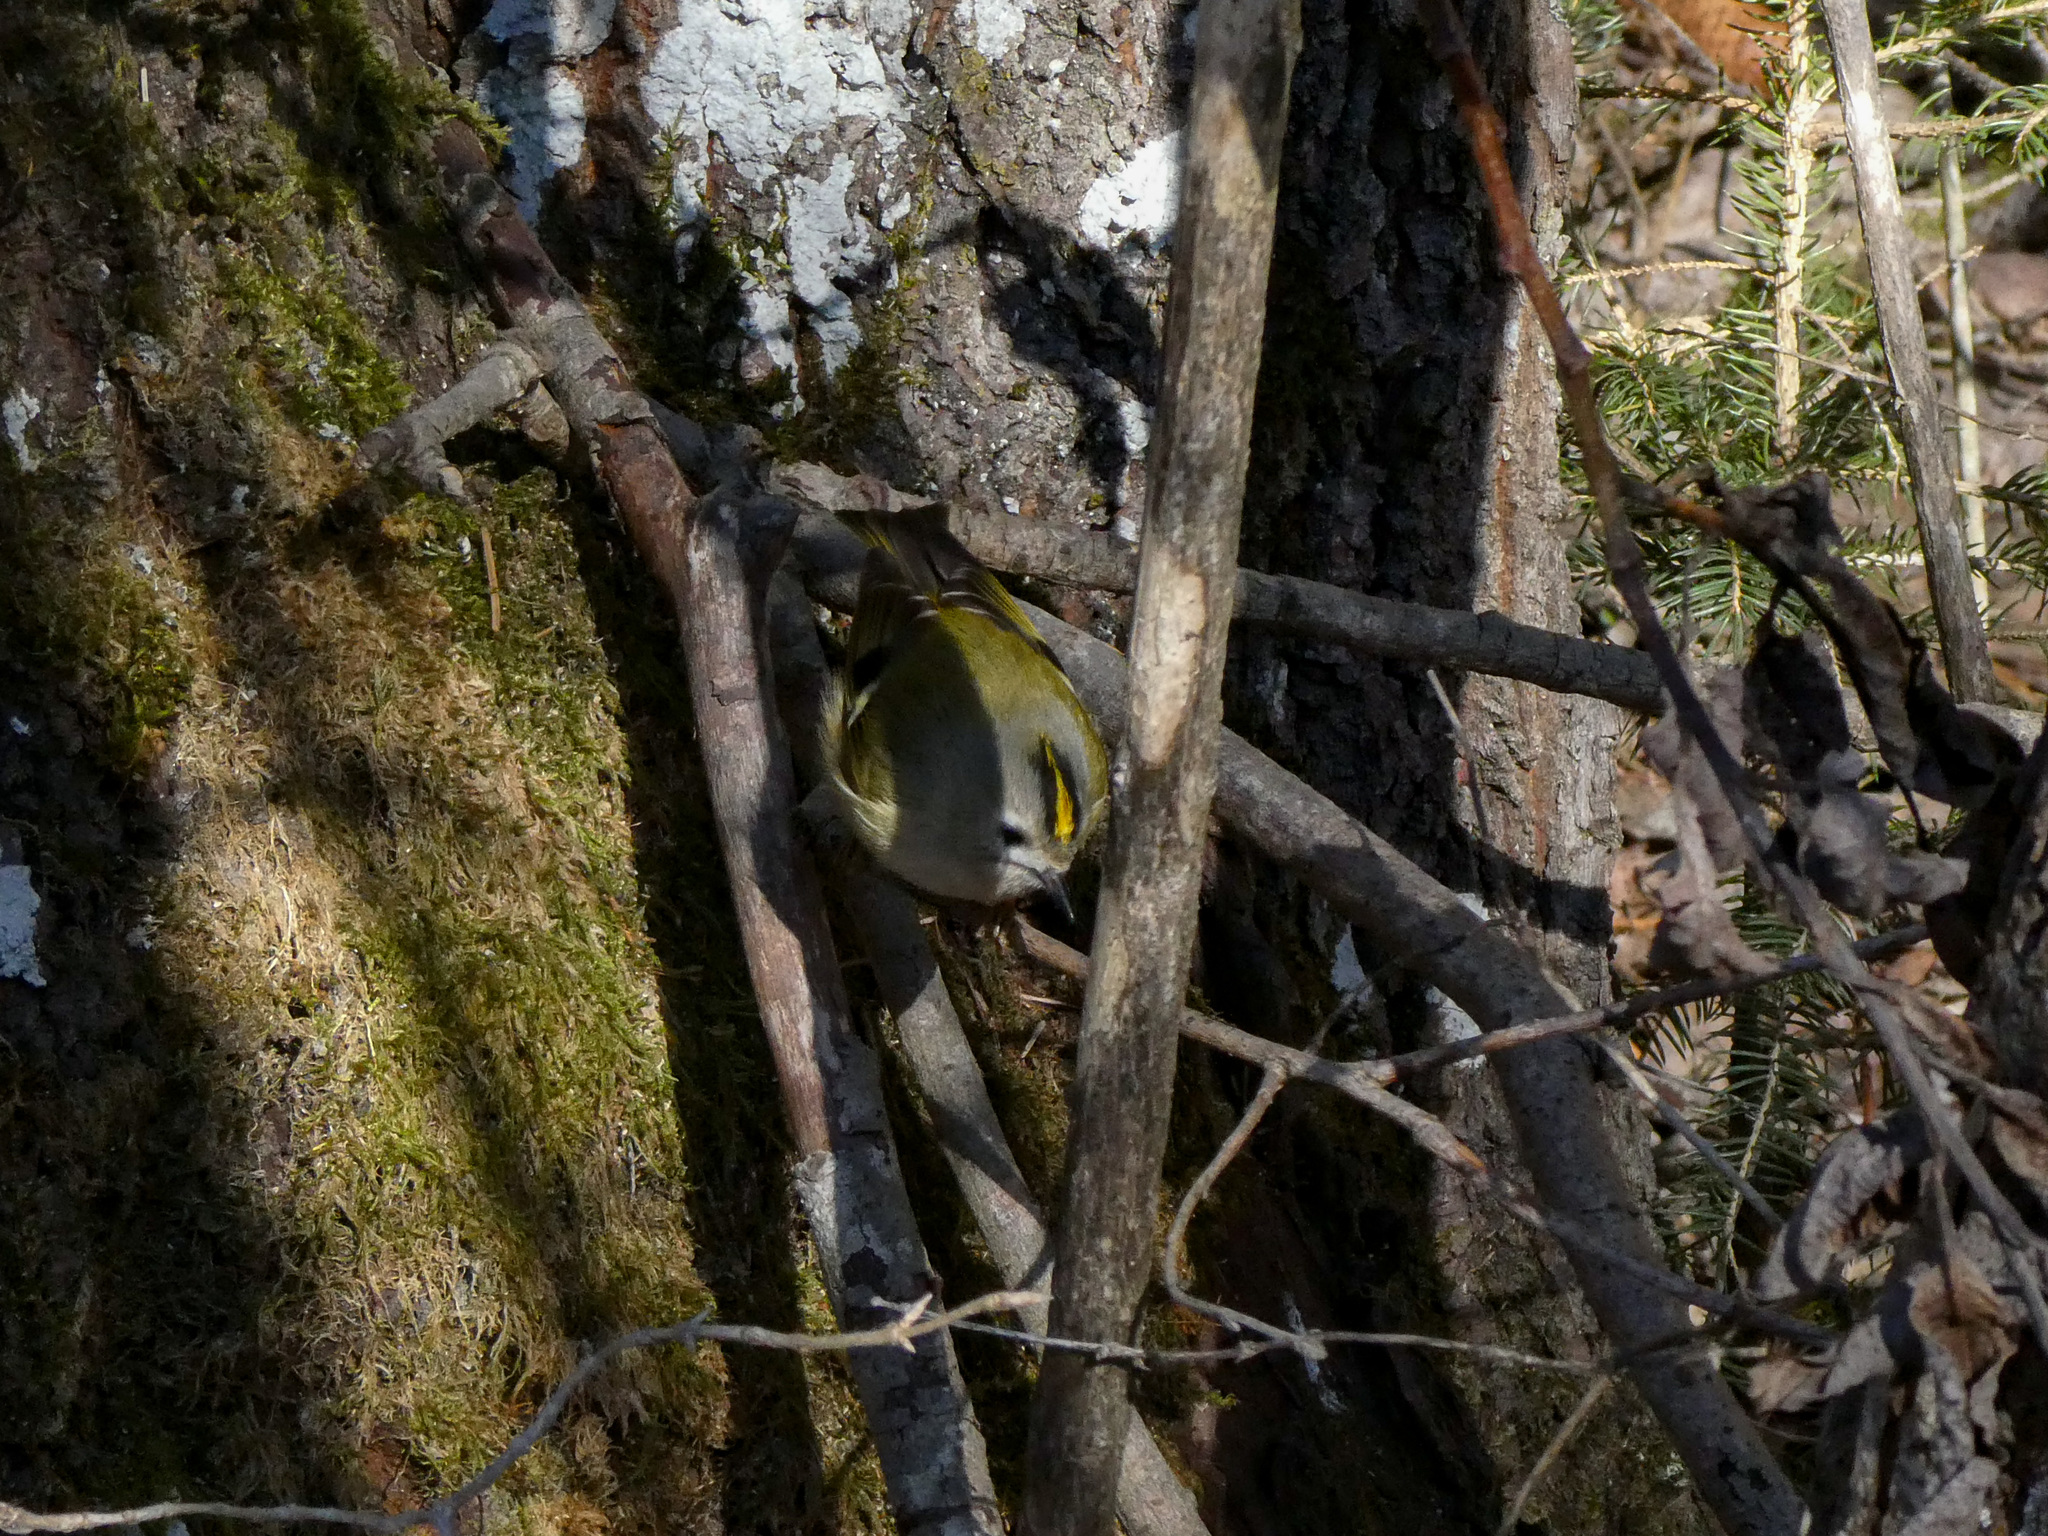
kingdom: Animalia
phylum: Chordata
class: Aves
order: Passeriformes
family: Regulidae
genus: Regulus
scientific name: Regulus regulus
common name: Goldcrest
